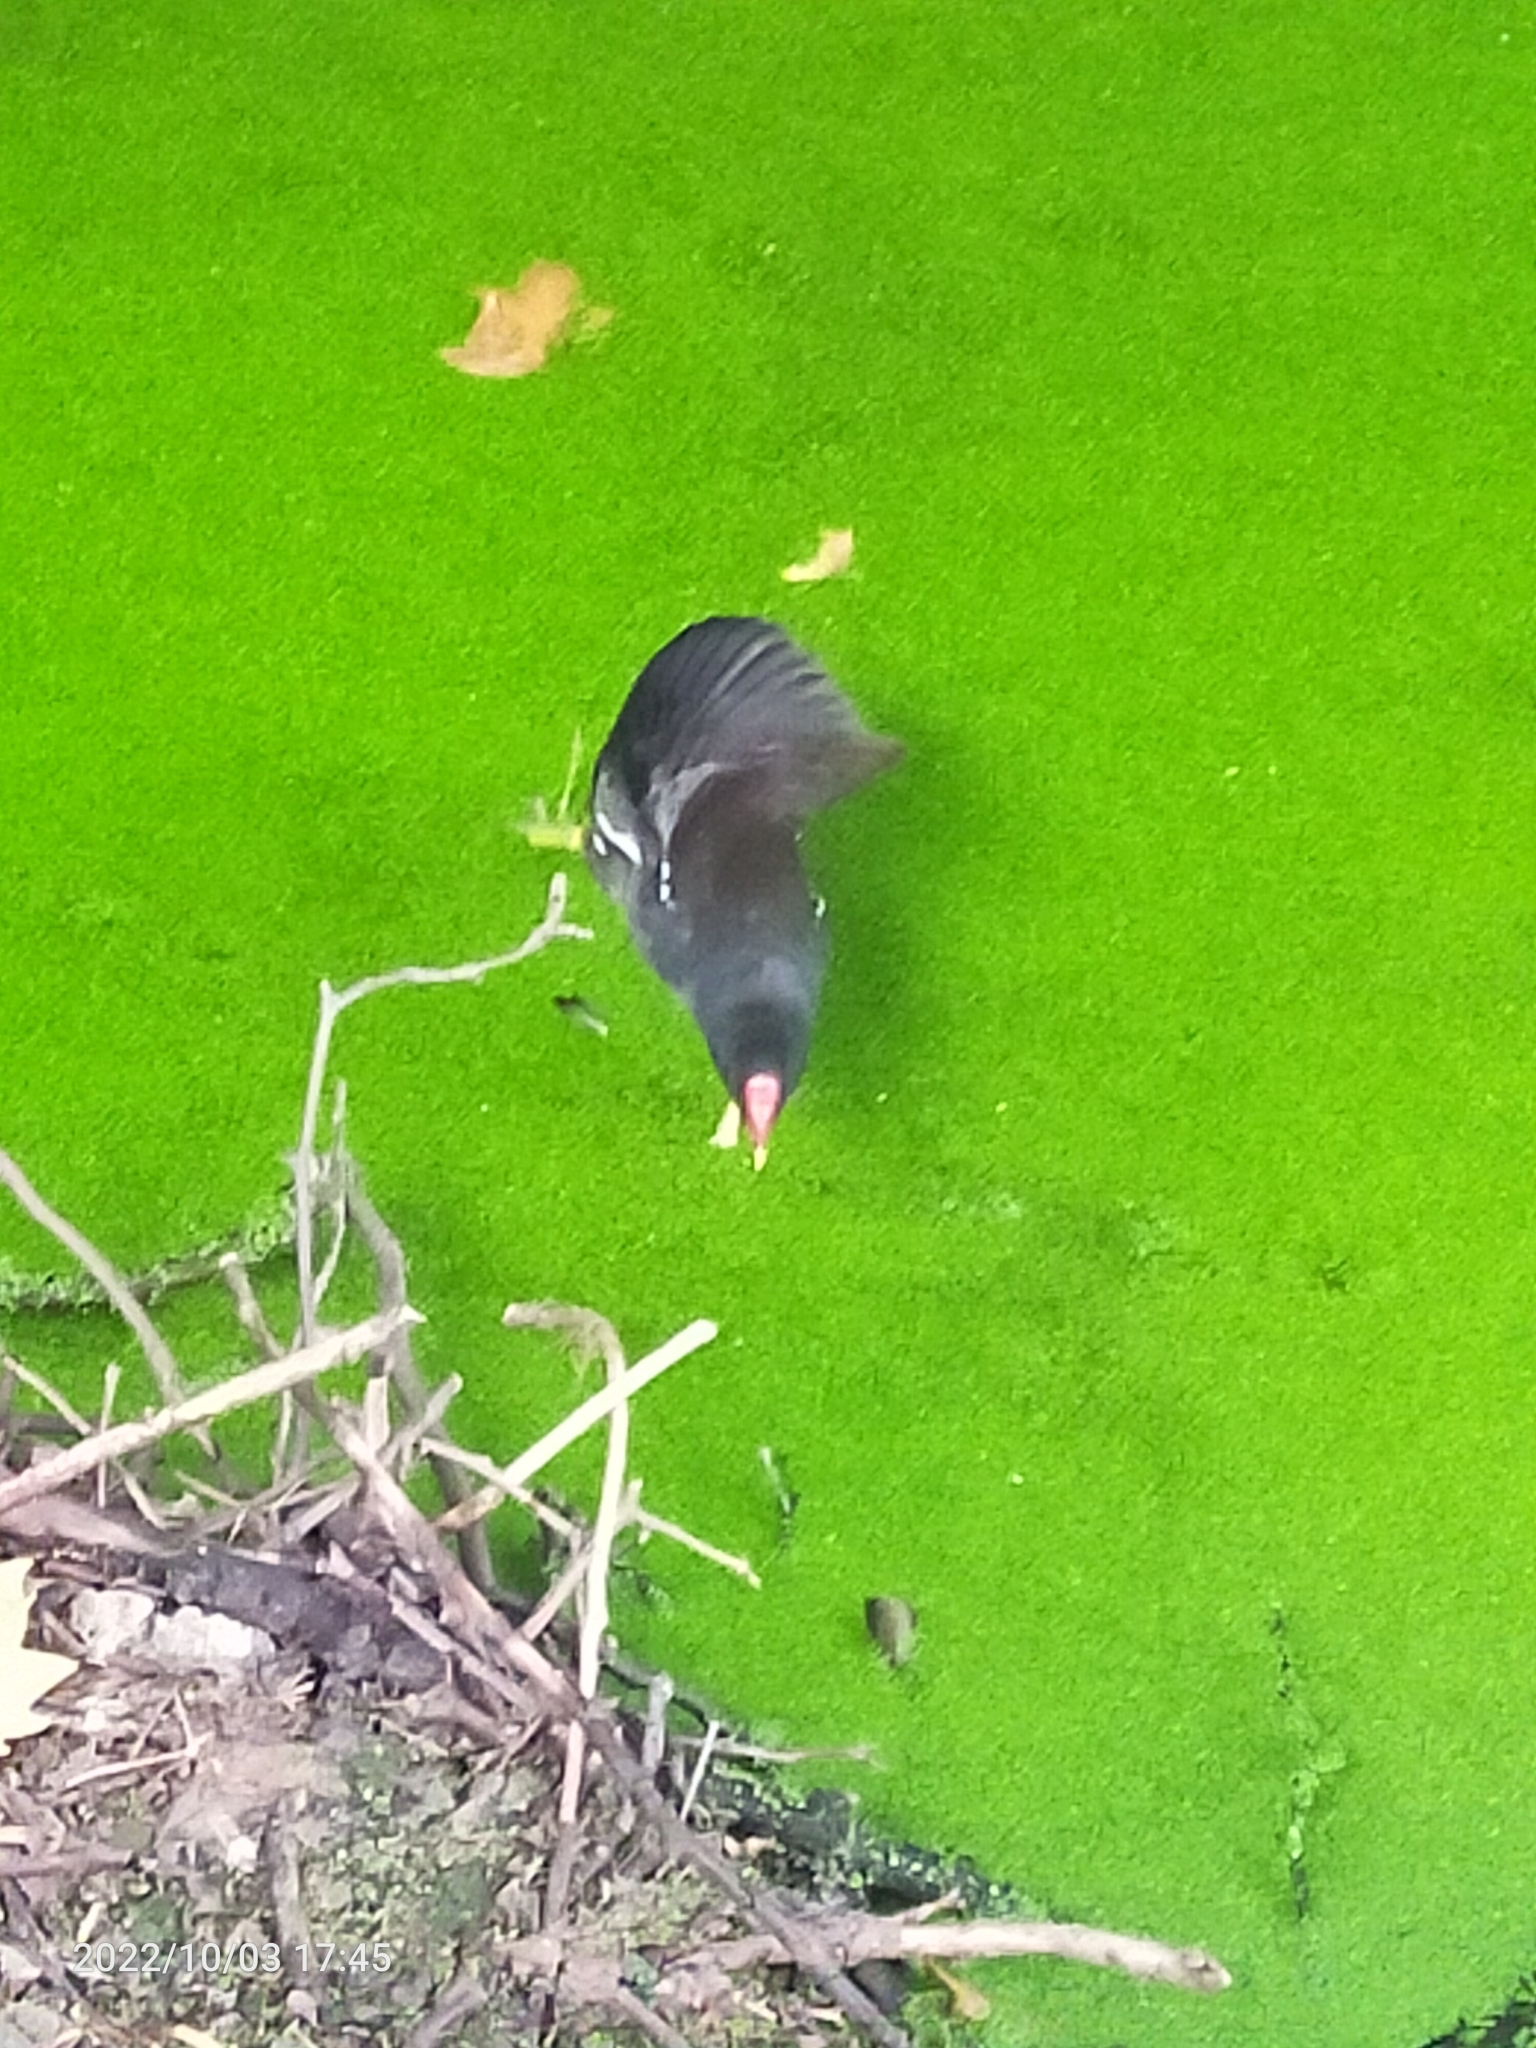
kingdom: Animalia
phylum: Chordata
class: Aves
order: Gruiformes
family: Rallidae
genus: Gallinula
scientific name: Gallinula chloropus
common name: Common moorhen
